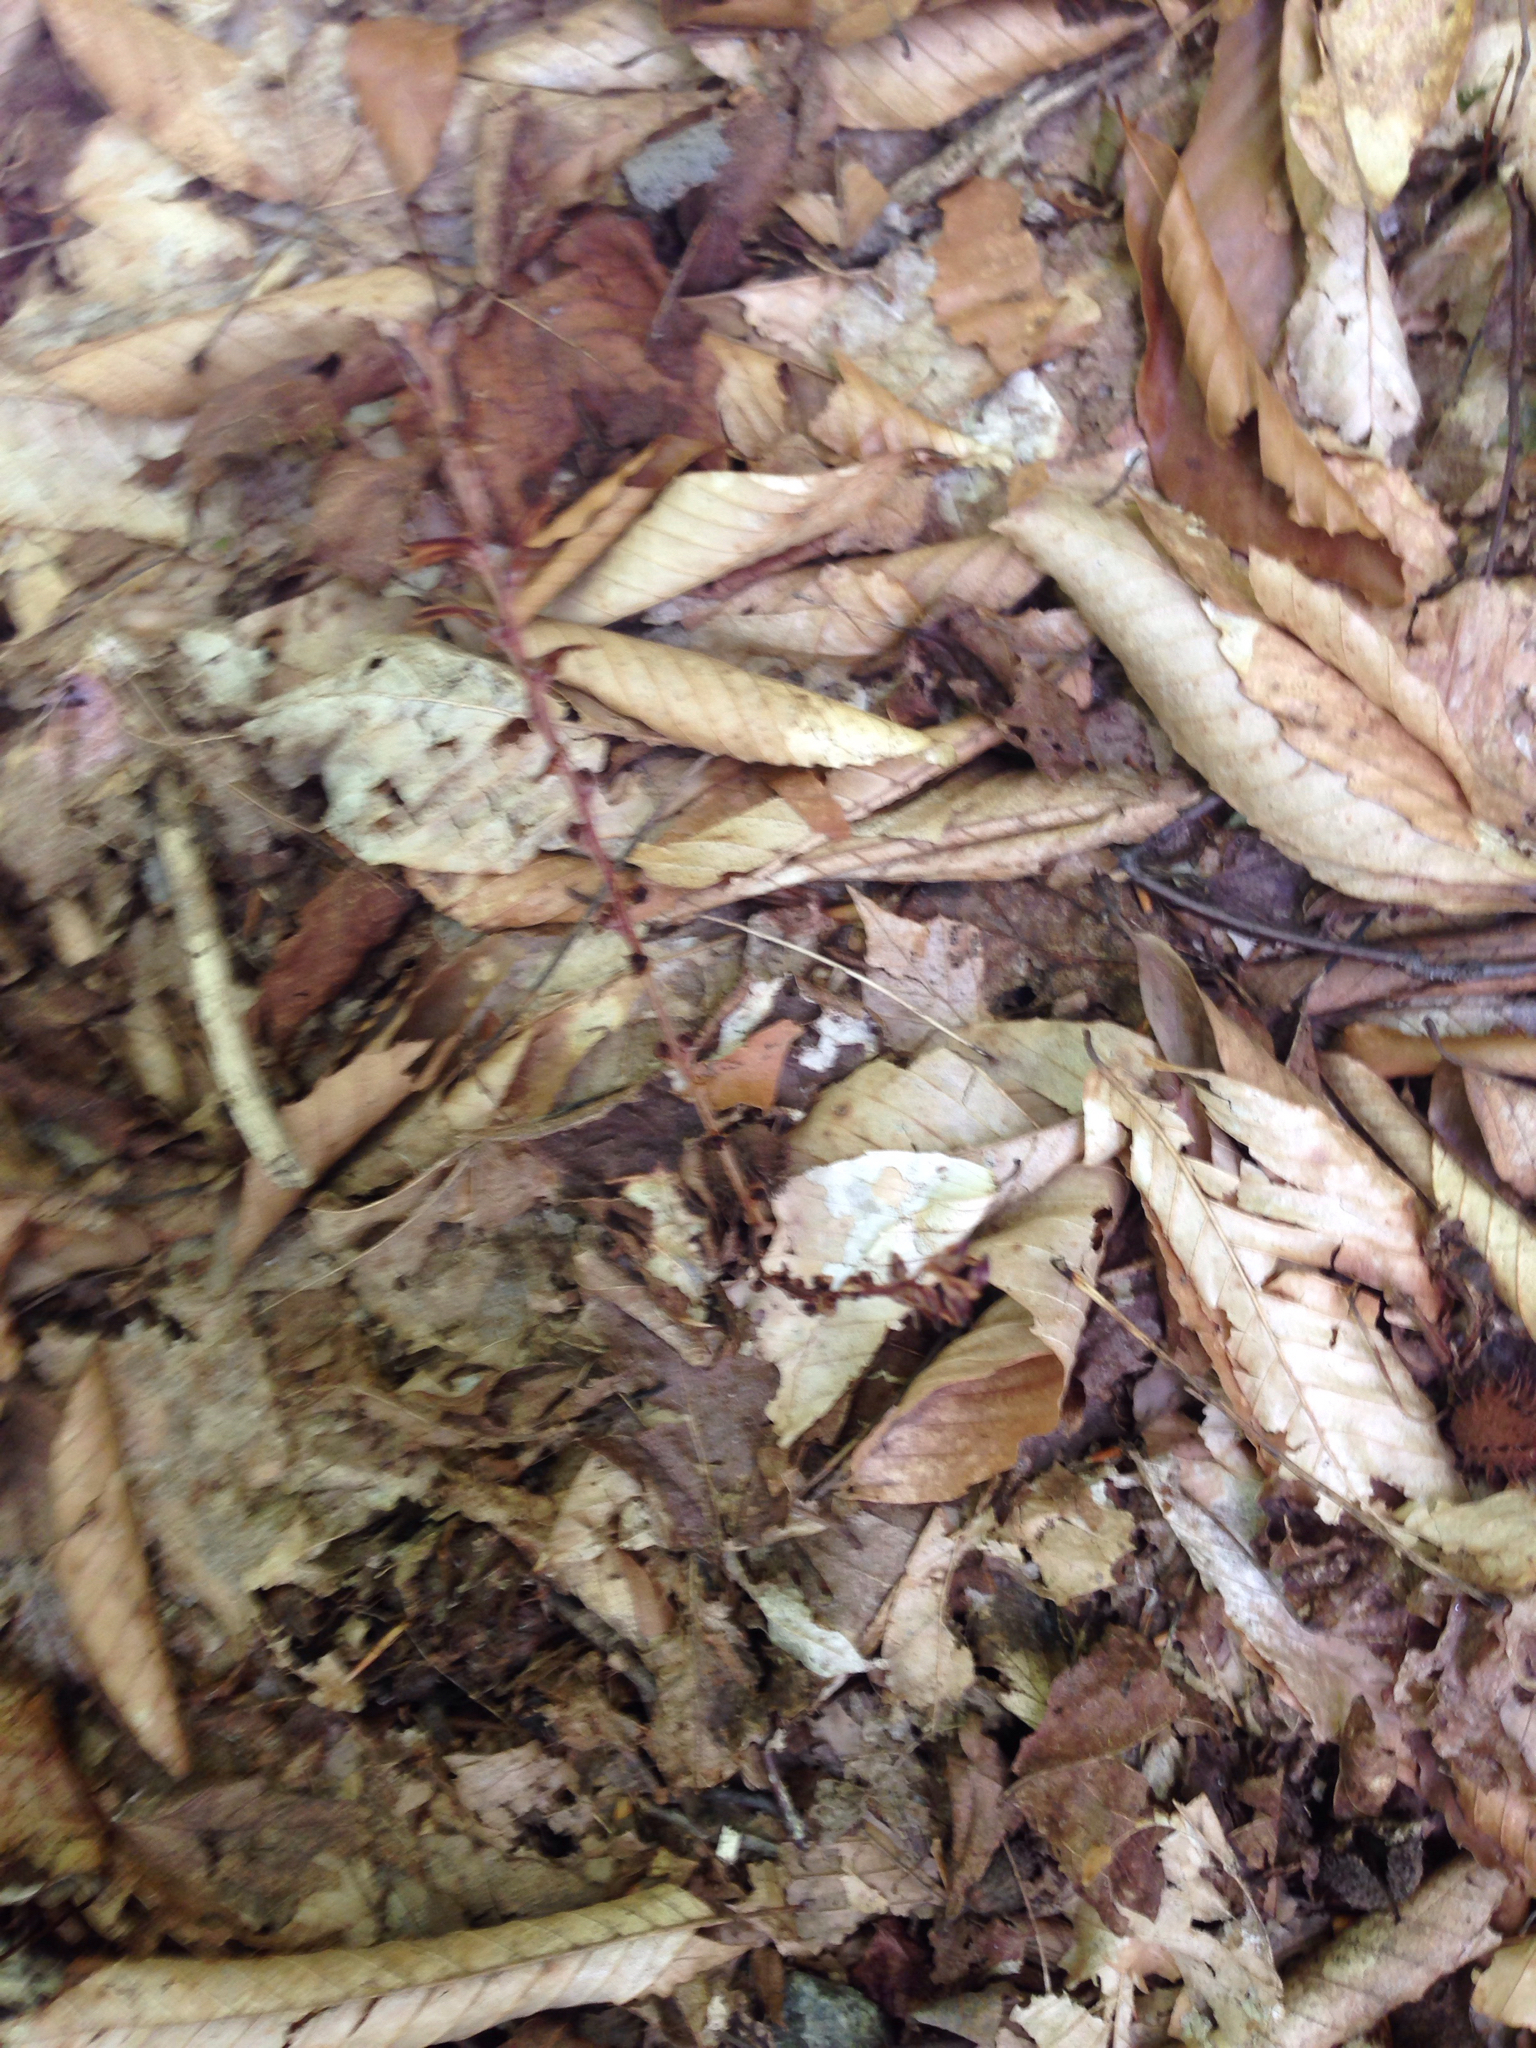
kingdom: Plantae
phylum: Tracheophyta
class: Magnoliopsida
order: Lamiales
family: Orobanchaceae
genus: Epifagus
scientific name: Epifagus virginiana
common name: Beechdrops
